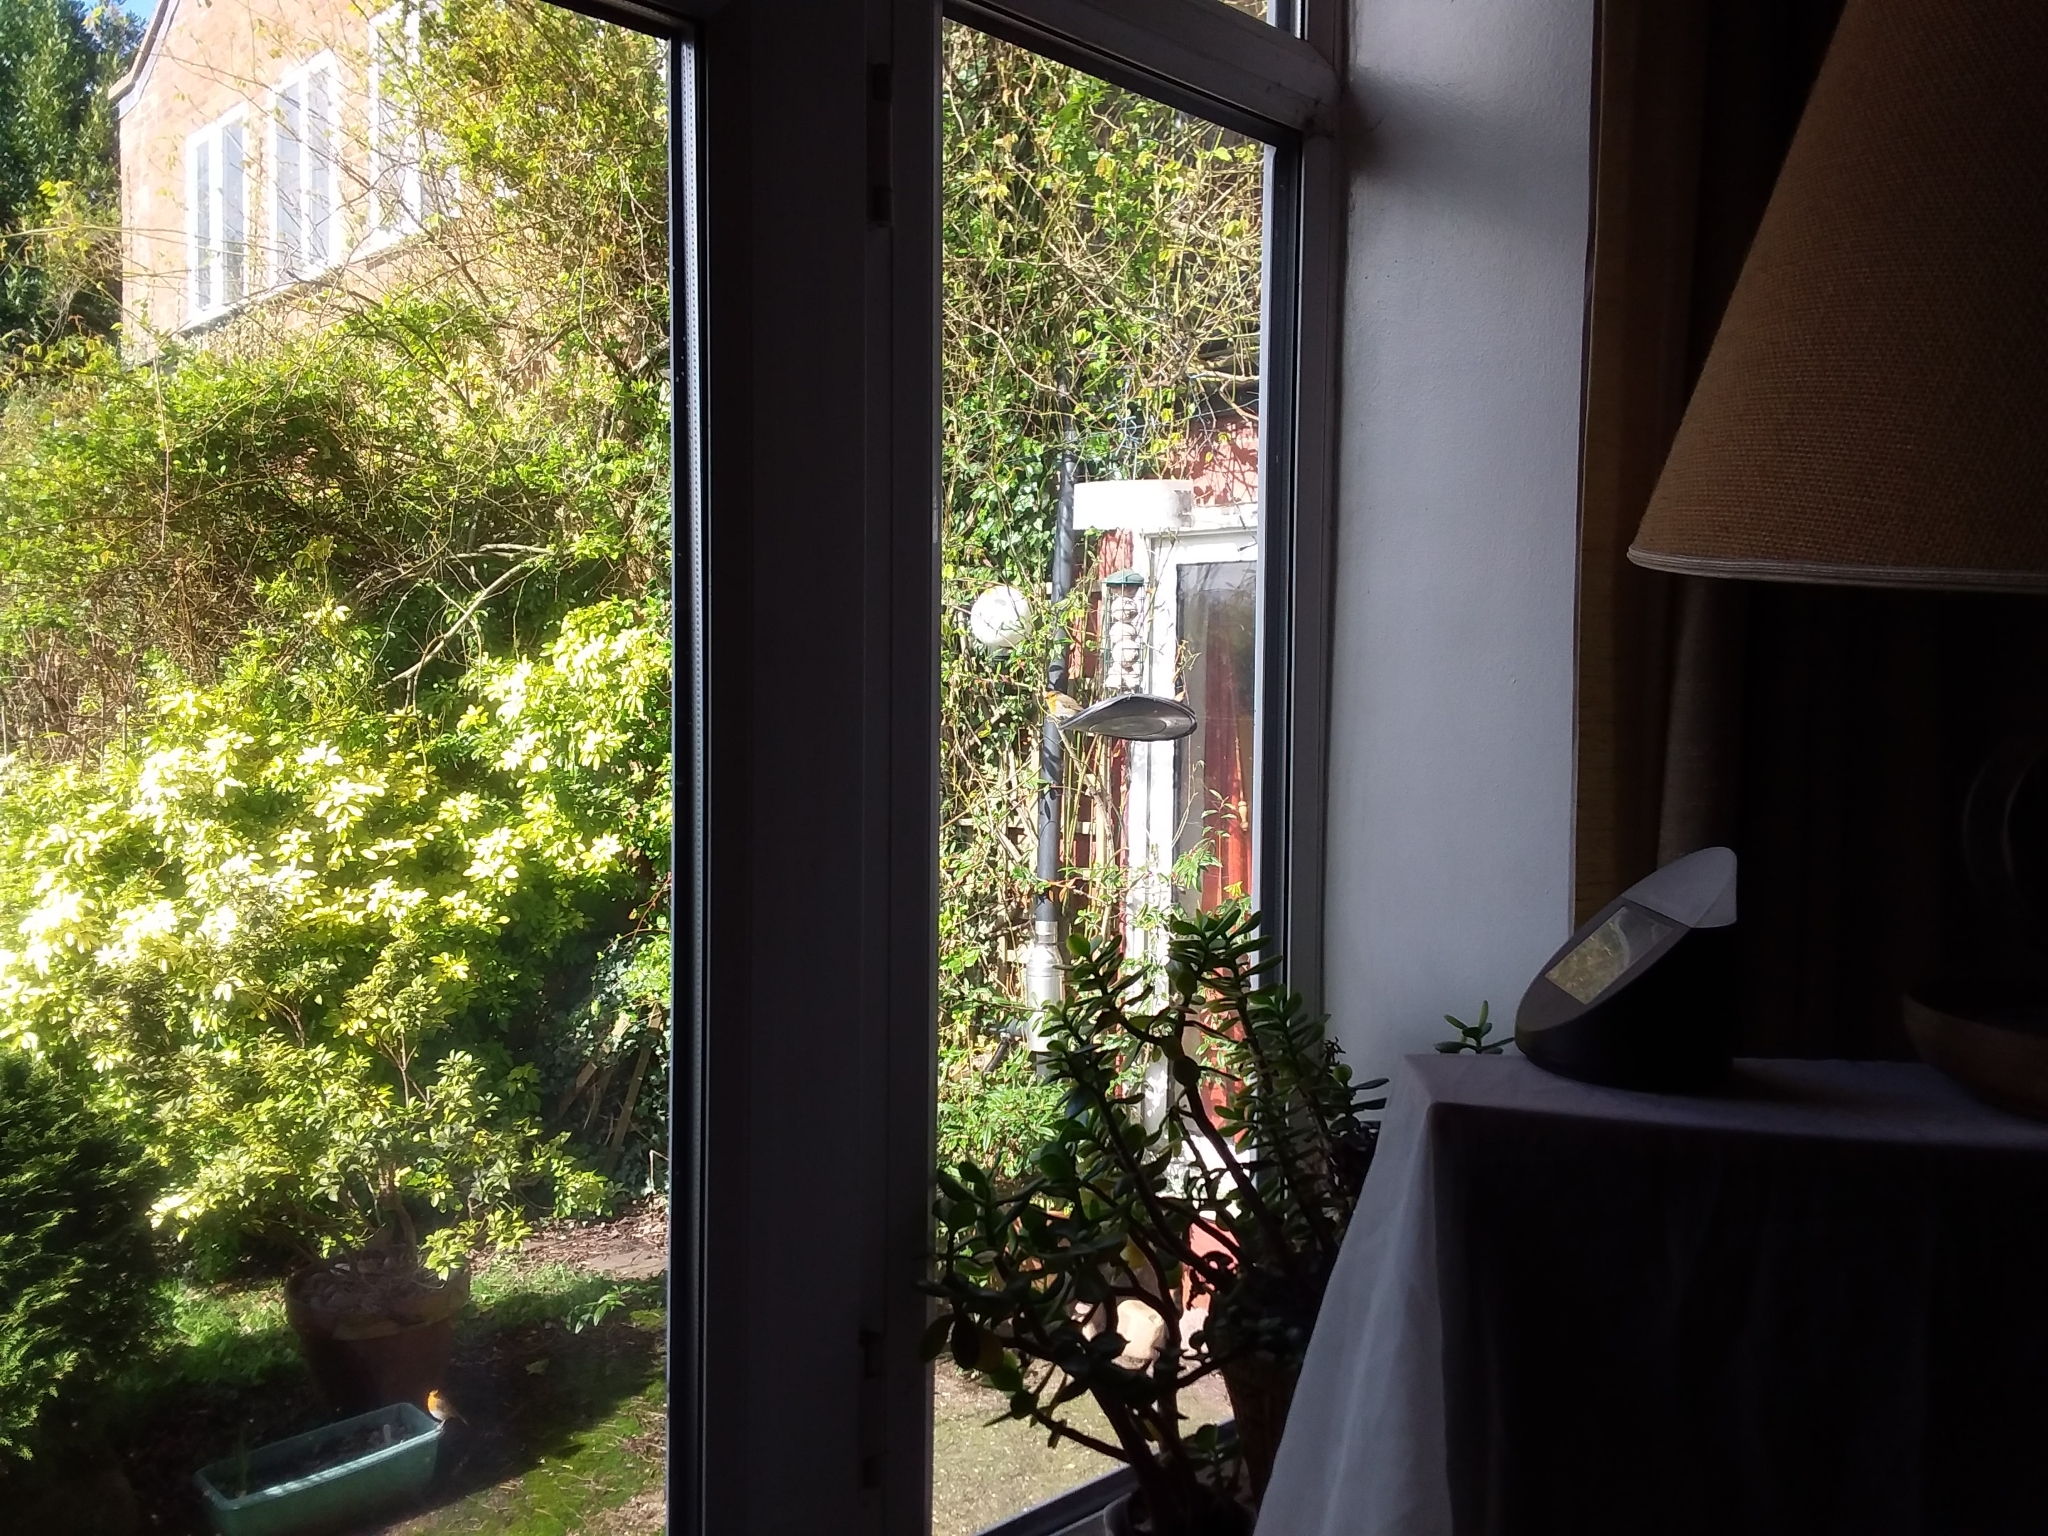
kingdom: Animalia
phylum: Chordata
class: Aves
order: Passeriformes
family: Muscicapidae
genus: Erithacus
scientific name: Erithacus rubecula
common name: European robin
